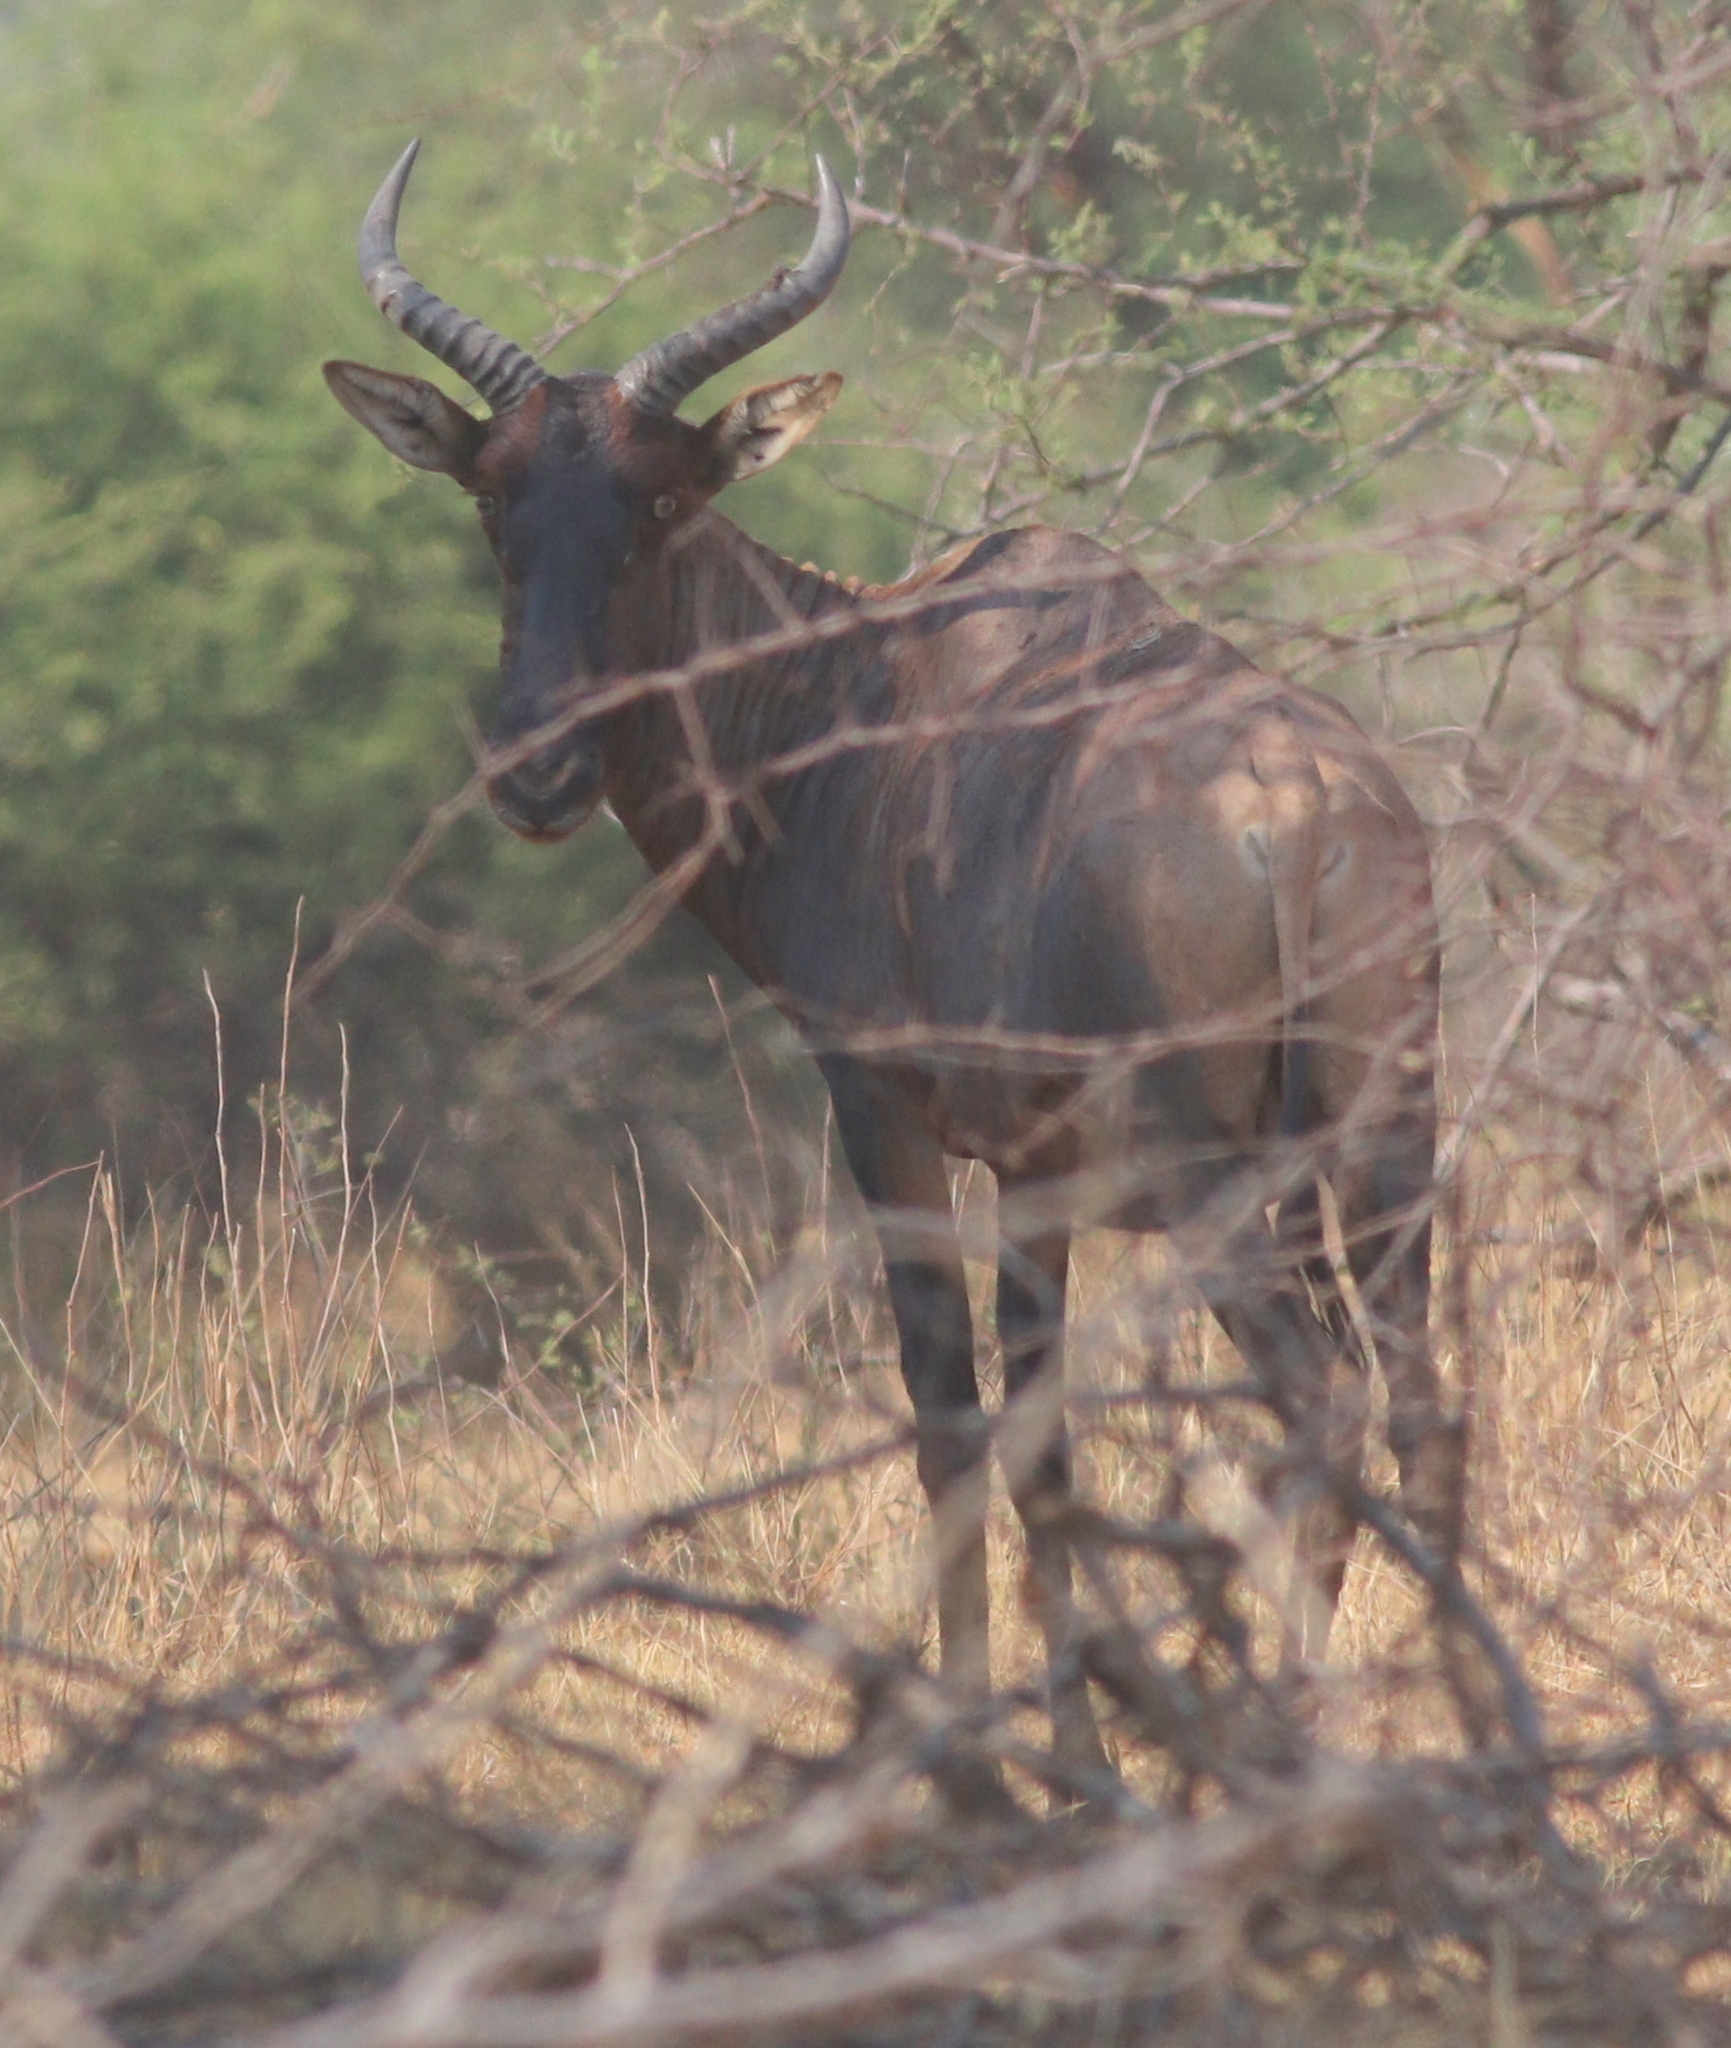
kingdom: Animalia
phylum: Chordata
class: Mammalia
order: Artiodactyla
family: Bovidae
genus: Damaliscus
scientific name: Damaliscus lunatus
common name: Common tsessebe
